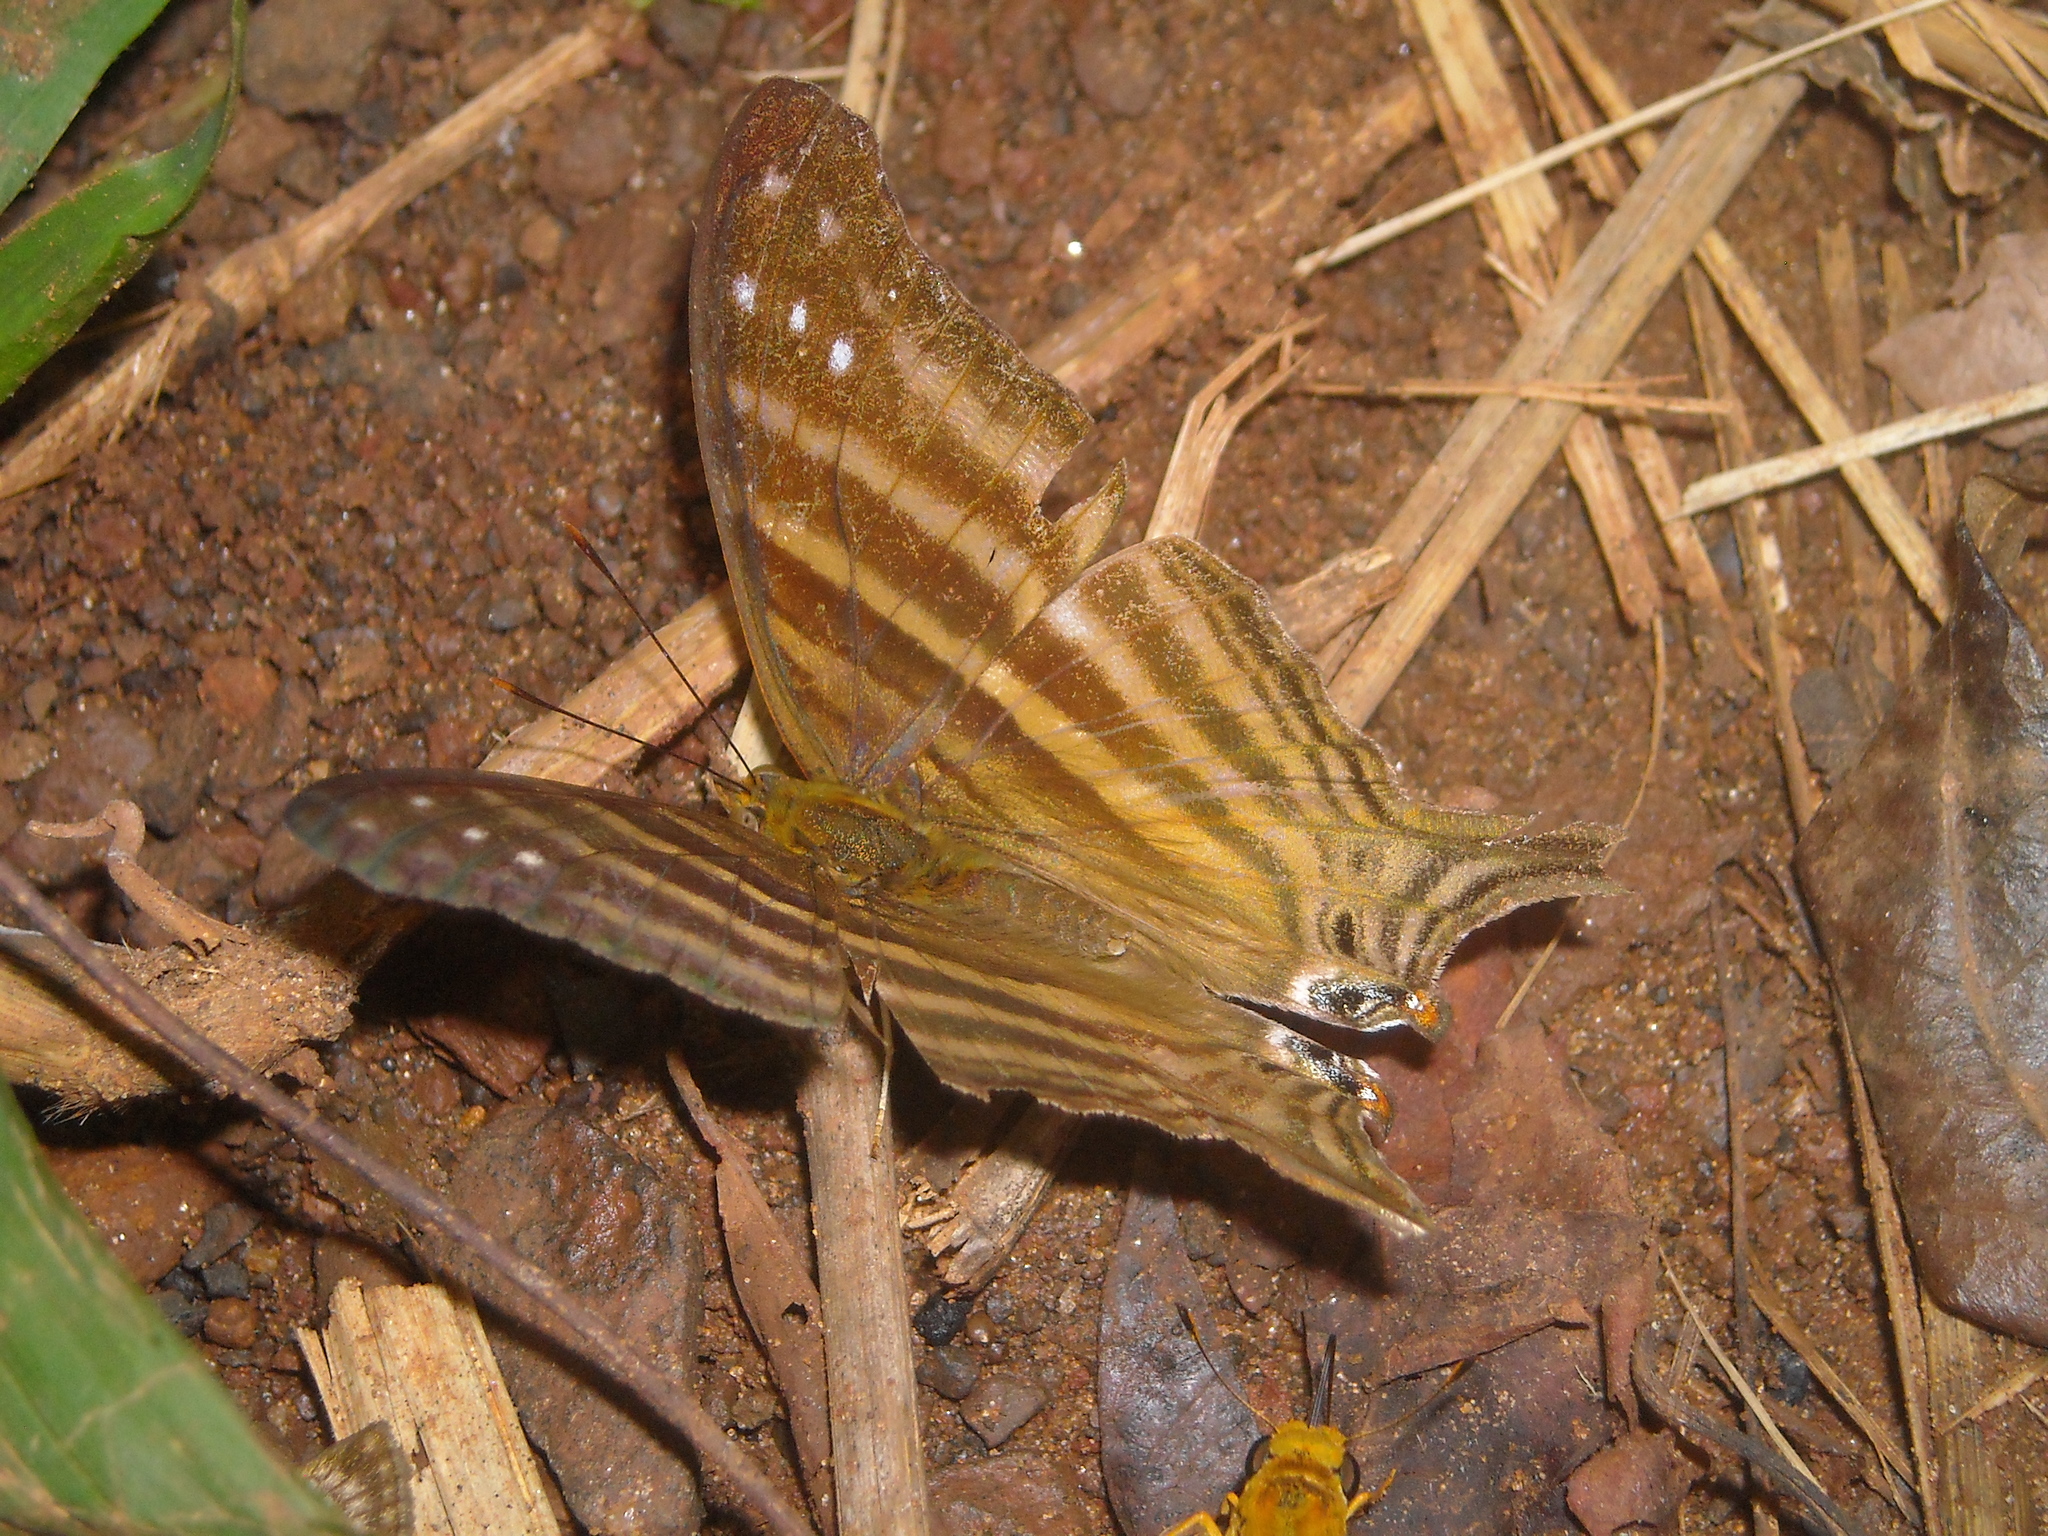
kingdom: Animalia
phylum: Arthropoda
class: Insecta
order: Lepidoptera
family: Nymphalidae
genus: Marpesia
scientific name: Marpesia chiron
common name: Many-banded daggerwing
